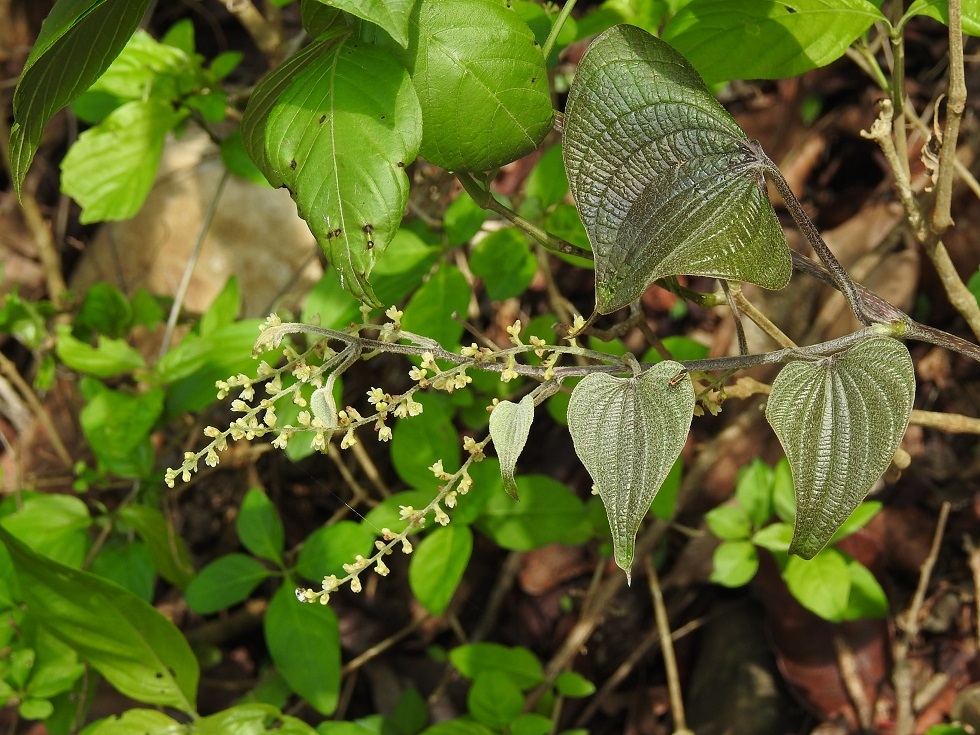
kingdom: Plantae
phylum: Tracheophyta
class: Liliopsida
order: Dioscoreales
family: Dioscoreaceae
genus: Dioscorea
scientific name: Dioscorea spiculiflora
